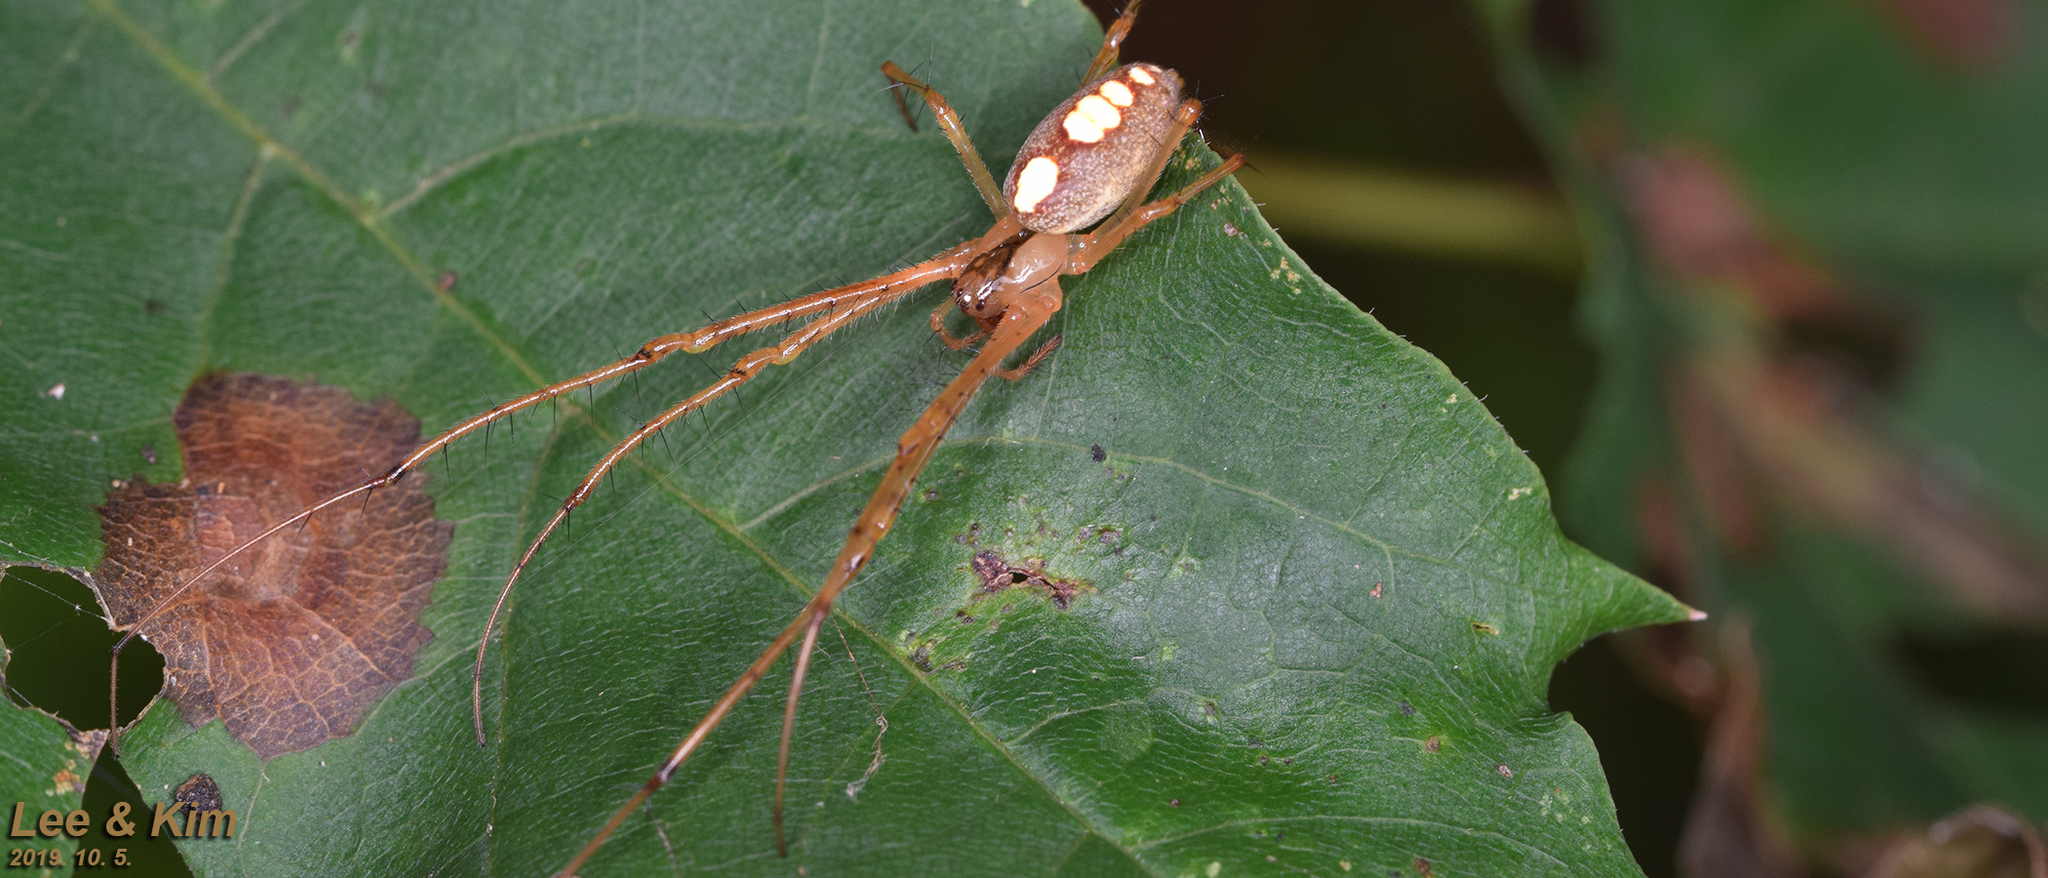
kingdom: Animalia
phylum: Arthropoda
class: Arachnida
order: Araneae
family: Tetragnathidae
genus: Metellina
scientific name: Metellina ornata
